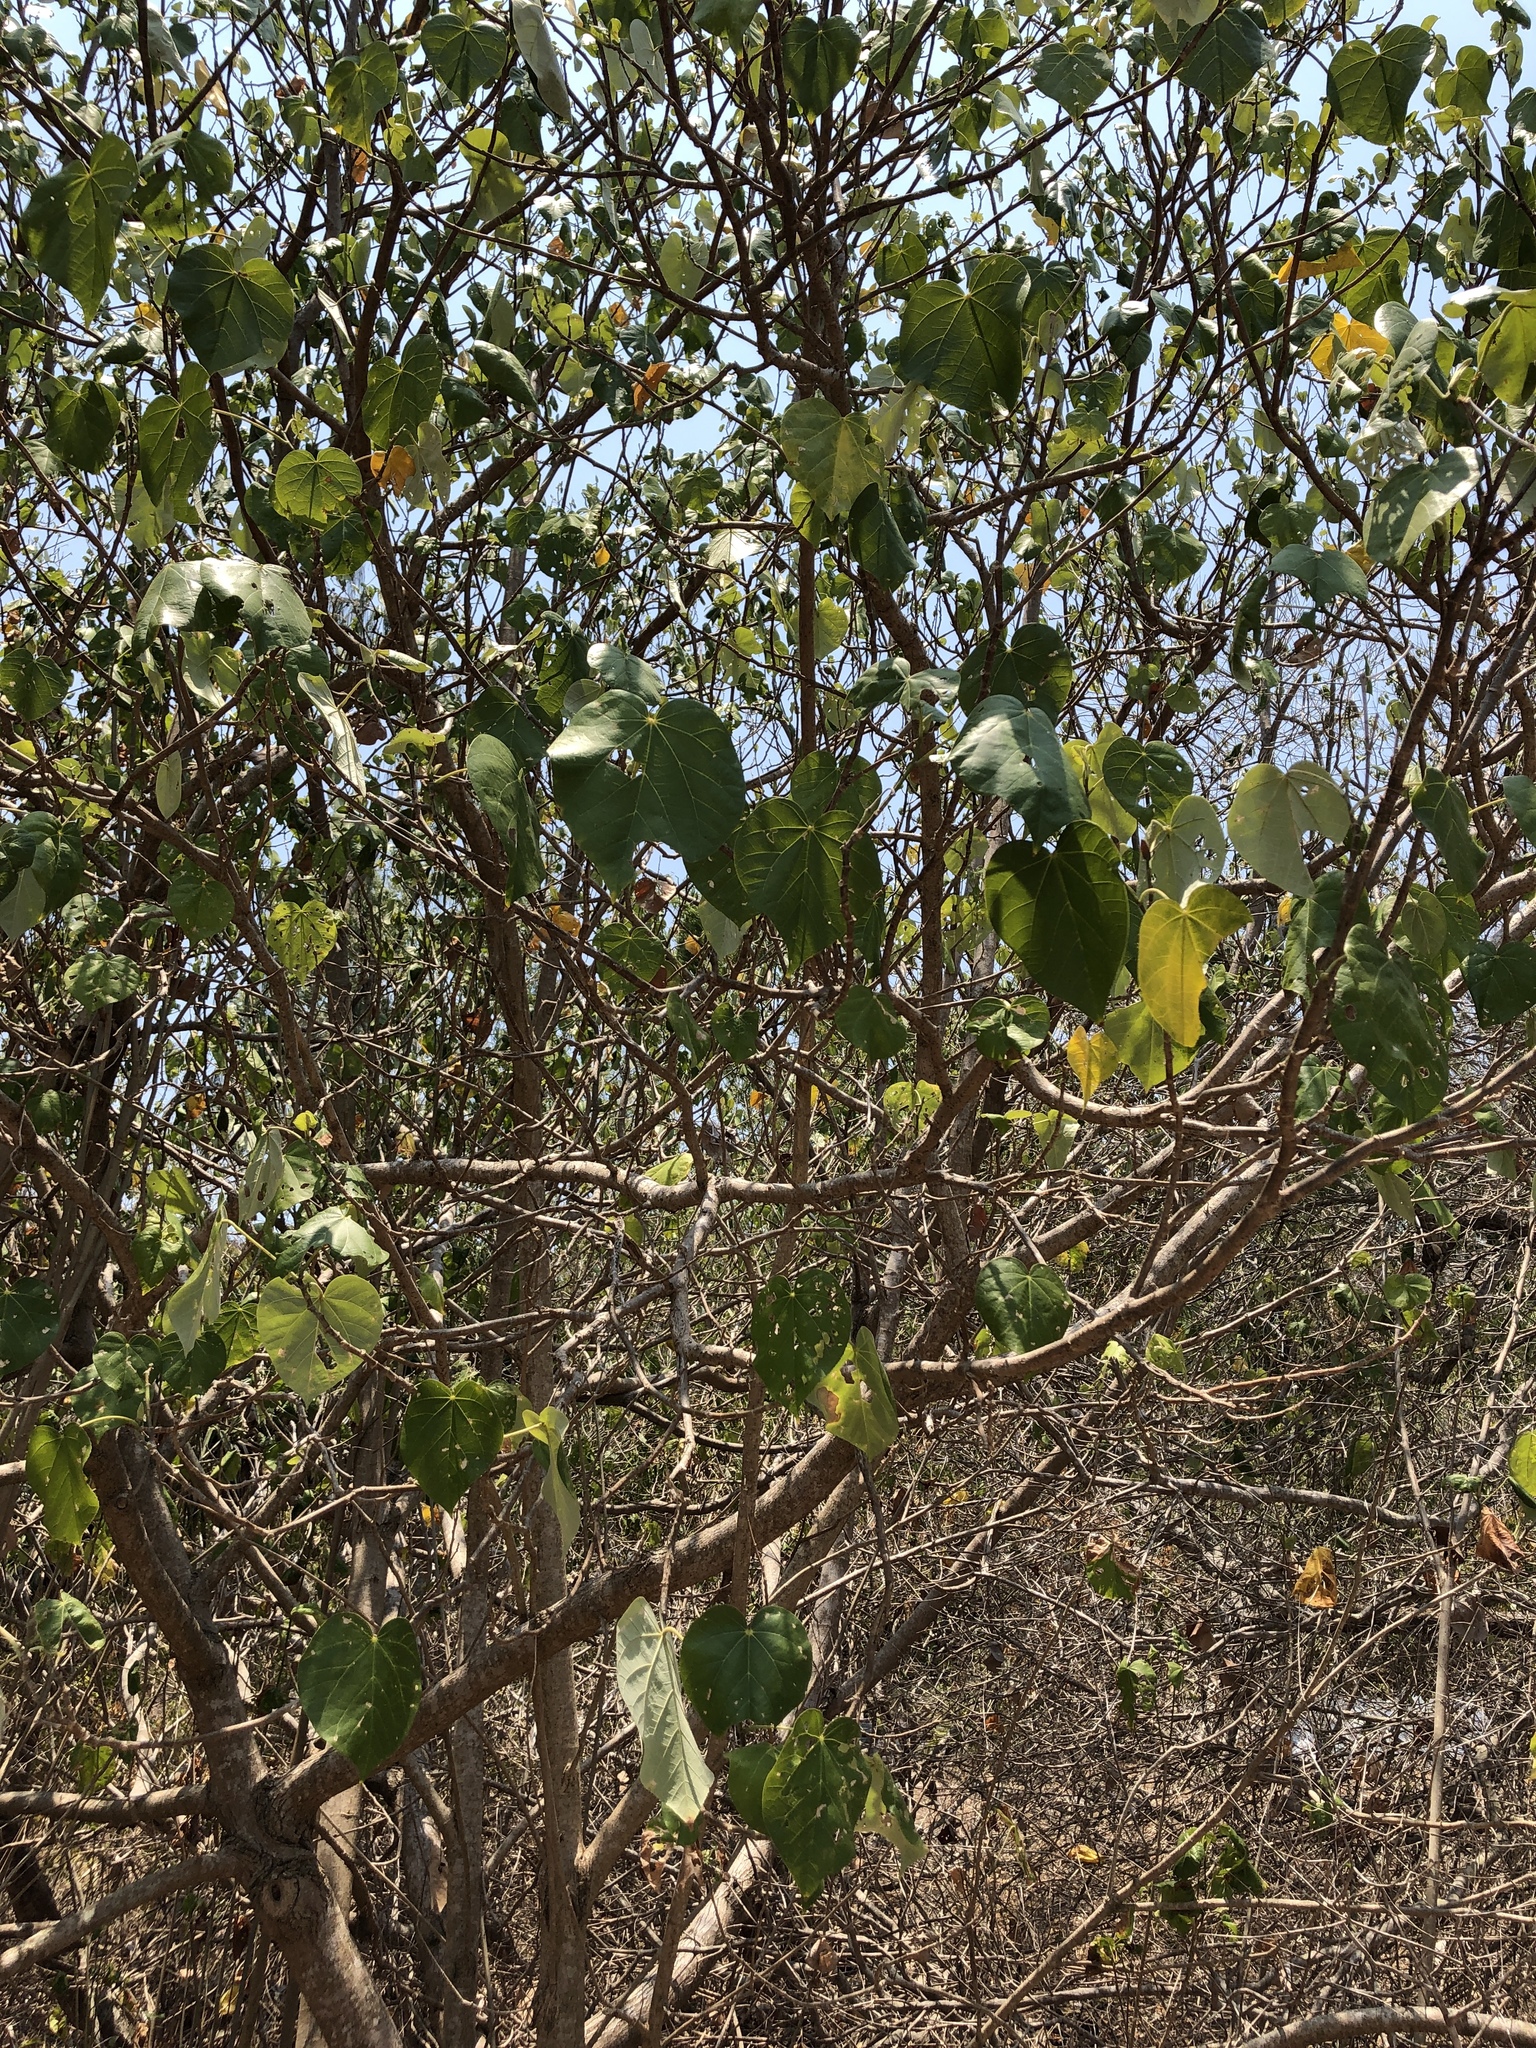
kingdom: Plantae
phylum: Tracheophyta
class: Magnoliopsida
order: Malvales
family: Malvaceae
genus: Talipariti
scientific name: Talipariti tiliaceum
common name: Sea hibiscus
